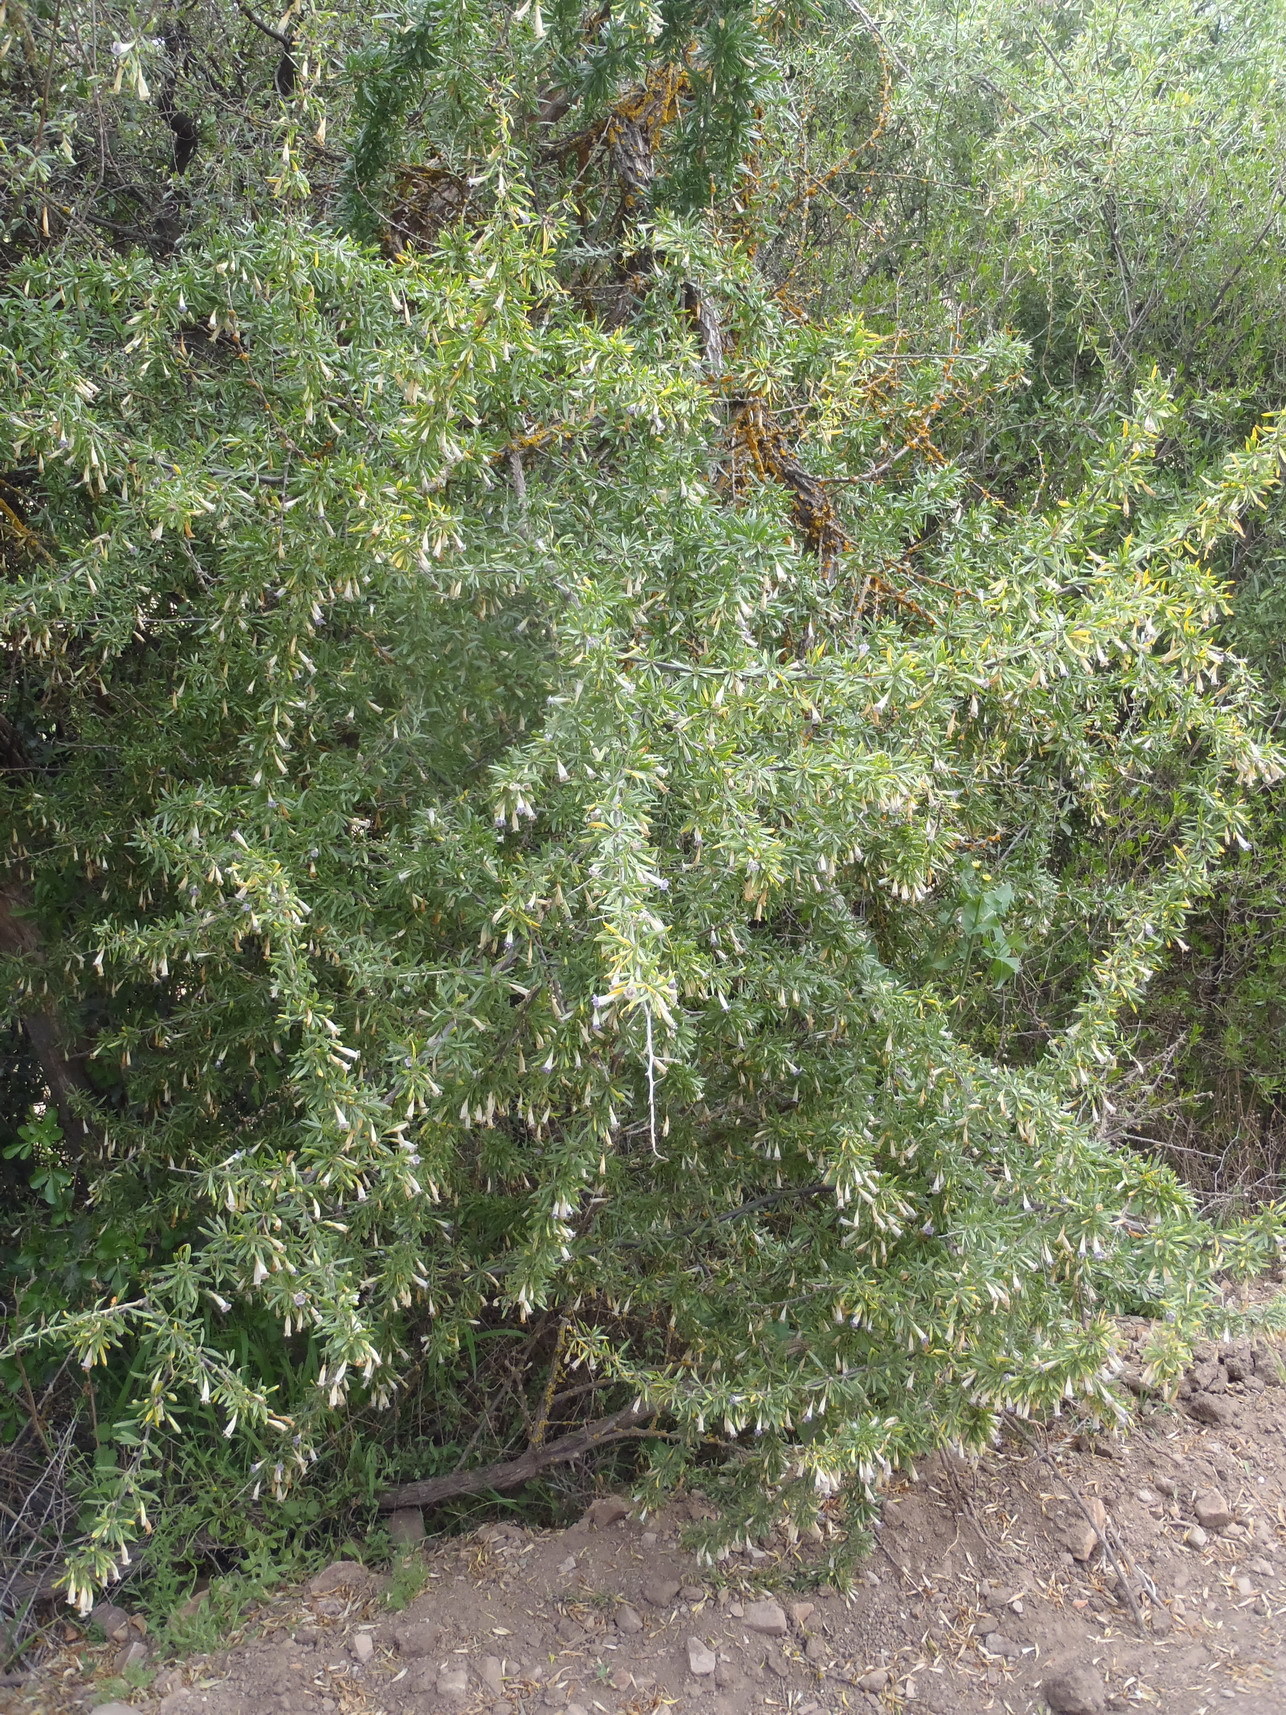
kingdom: Plantae
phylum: Tracheophyta
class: Magnoliopsida
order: Solanales
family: Solanaceae
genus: Lycium
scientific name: Lycium oxycarpum
